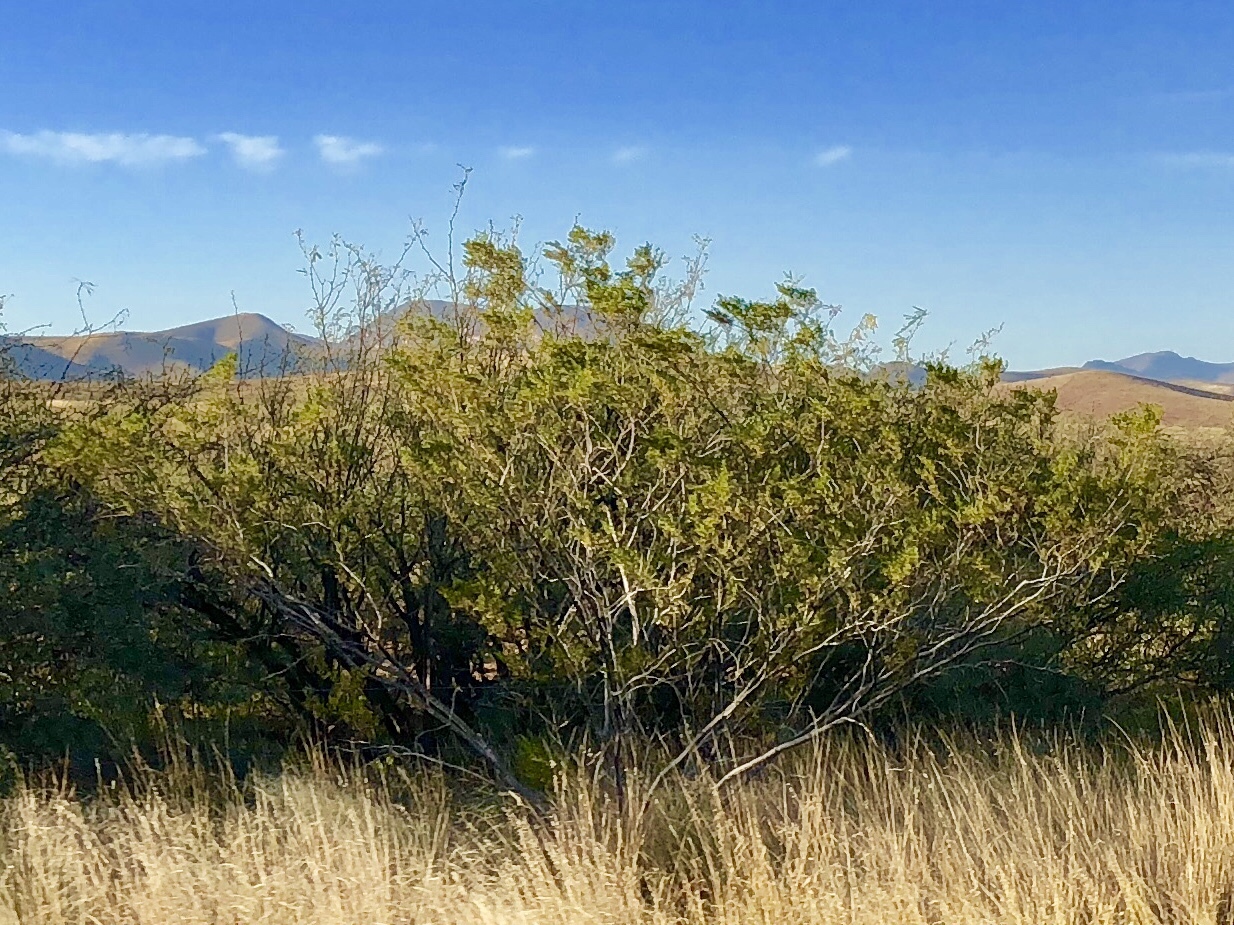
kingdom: Plantae
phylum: Tracheophyta
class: Magnoliopsida
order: Zygophyllales
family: Zygophyllaceae
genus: Larrea
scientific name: Larrea tridentata
